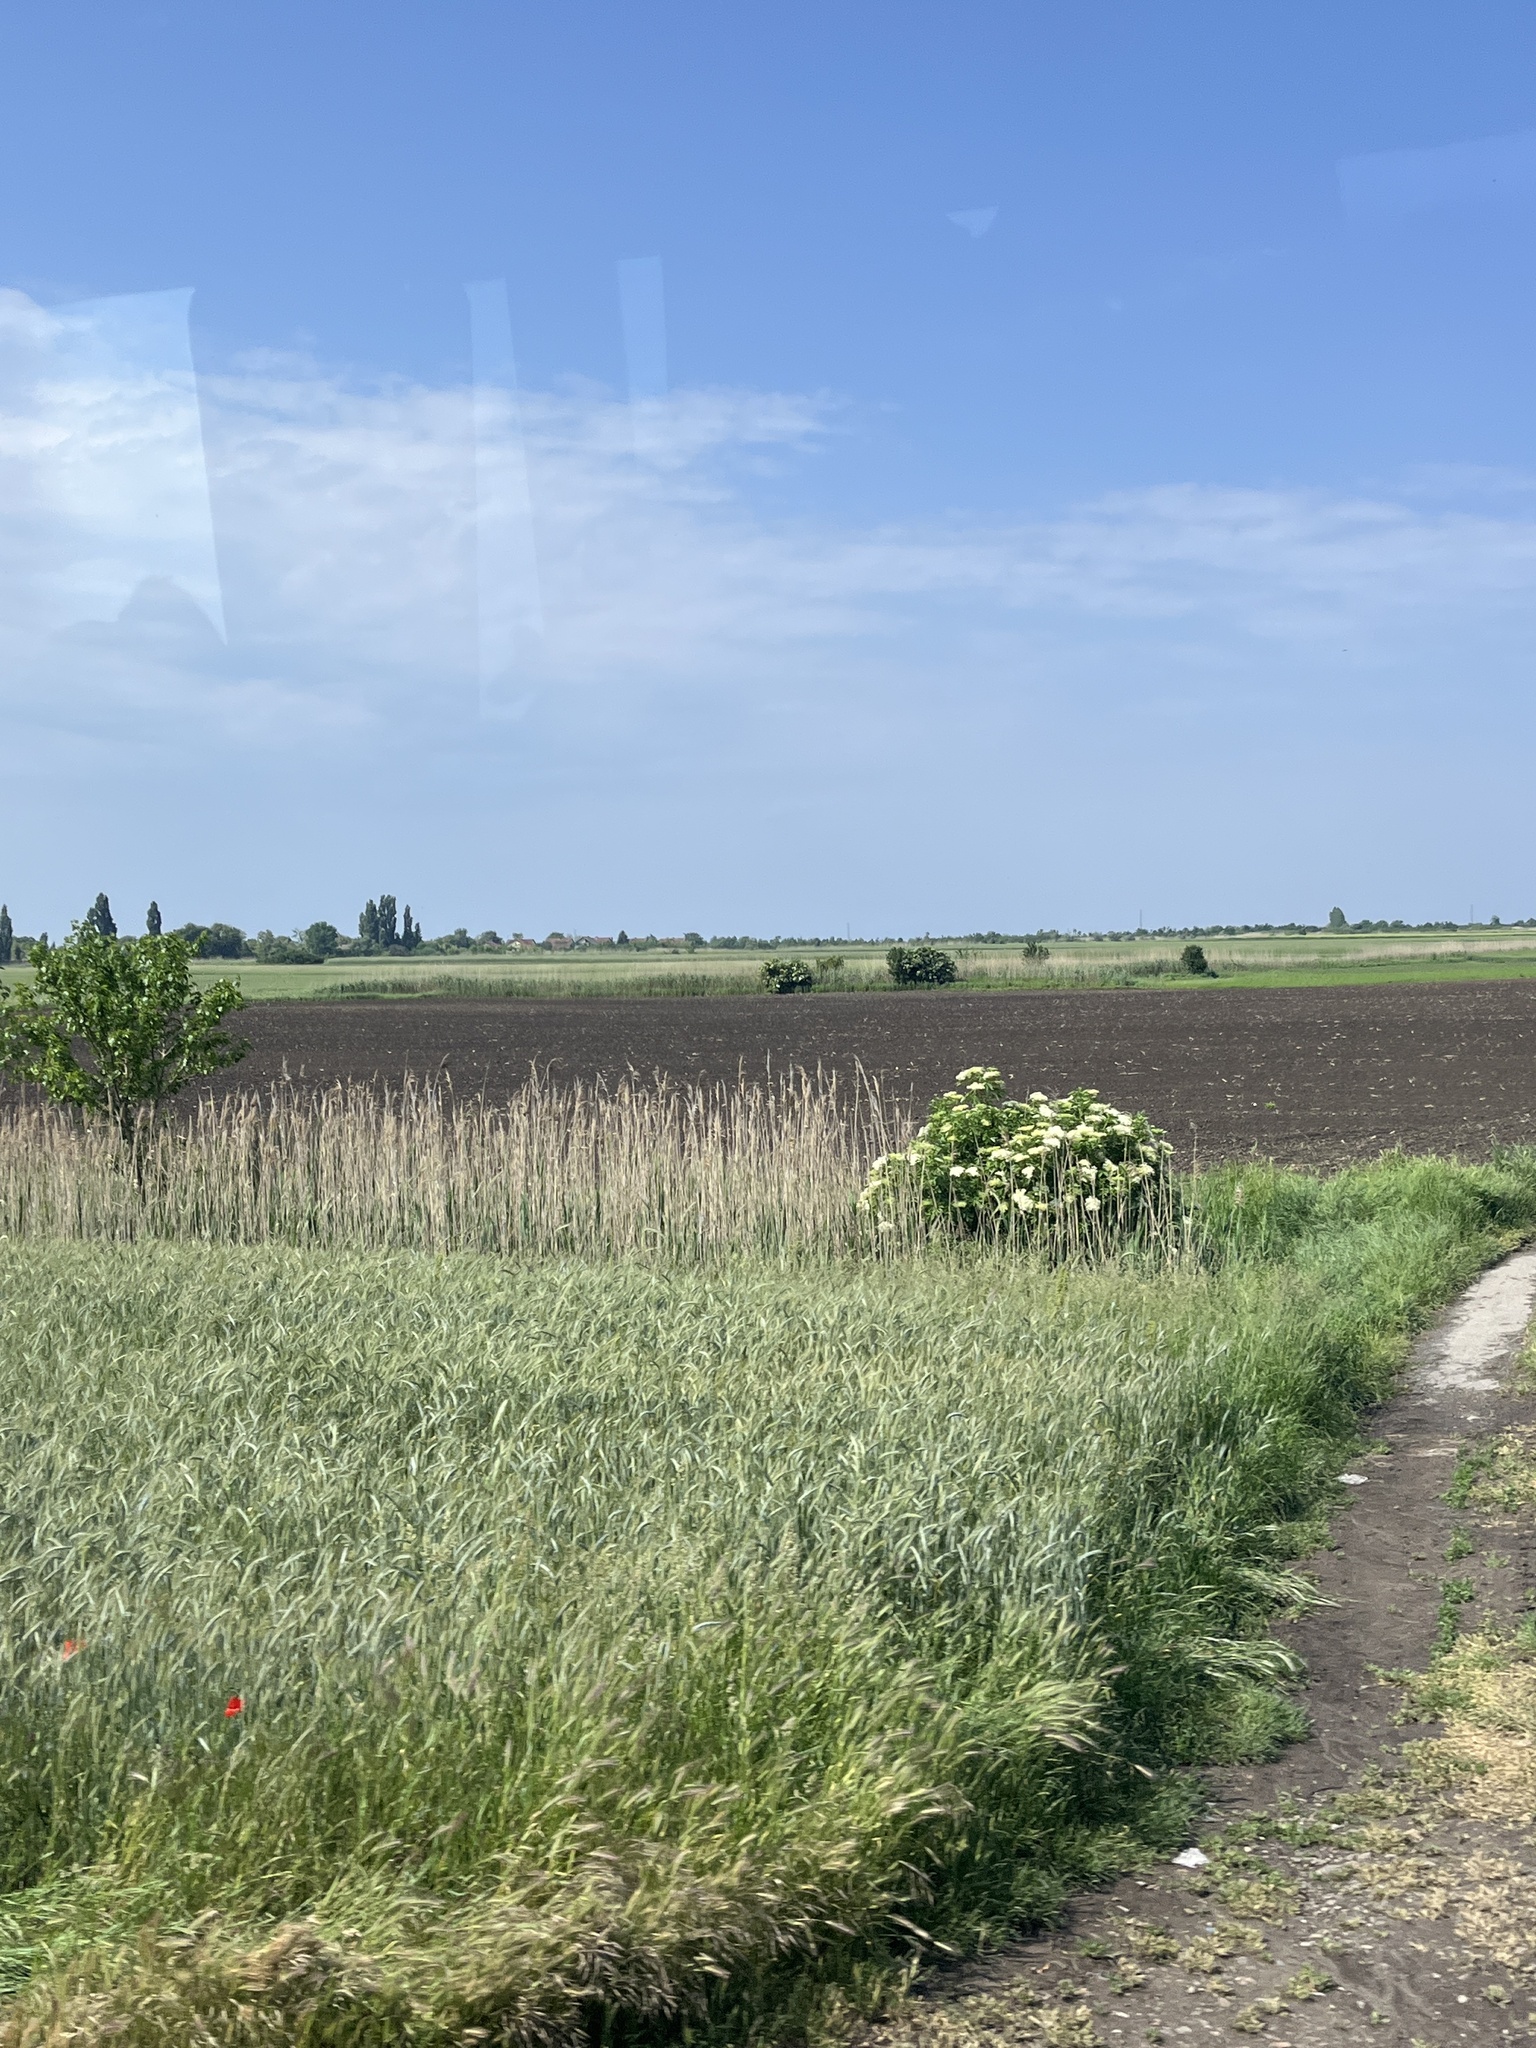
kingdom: Plantae
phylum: Tracheophyta
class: Magnoliopsida
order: Fabales
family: Fabaceae
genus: Robinia
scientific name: Robinia pseudoacacia
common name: Black locust
